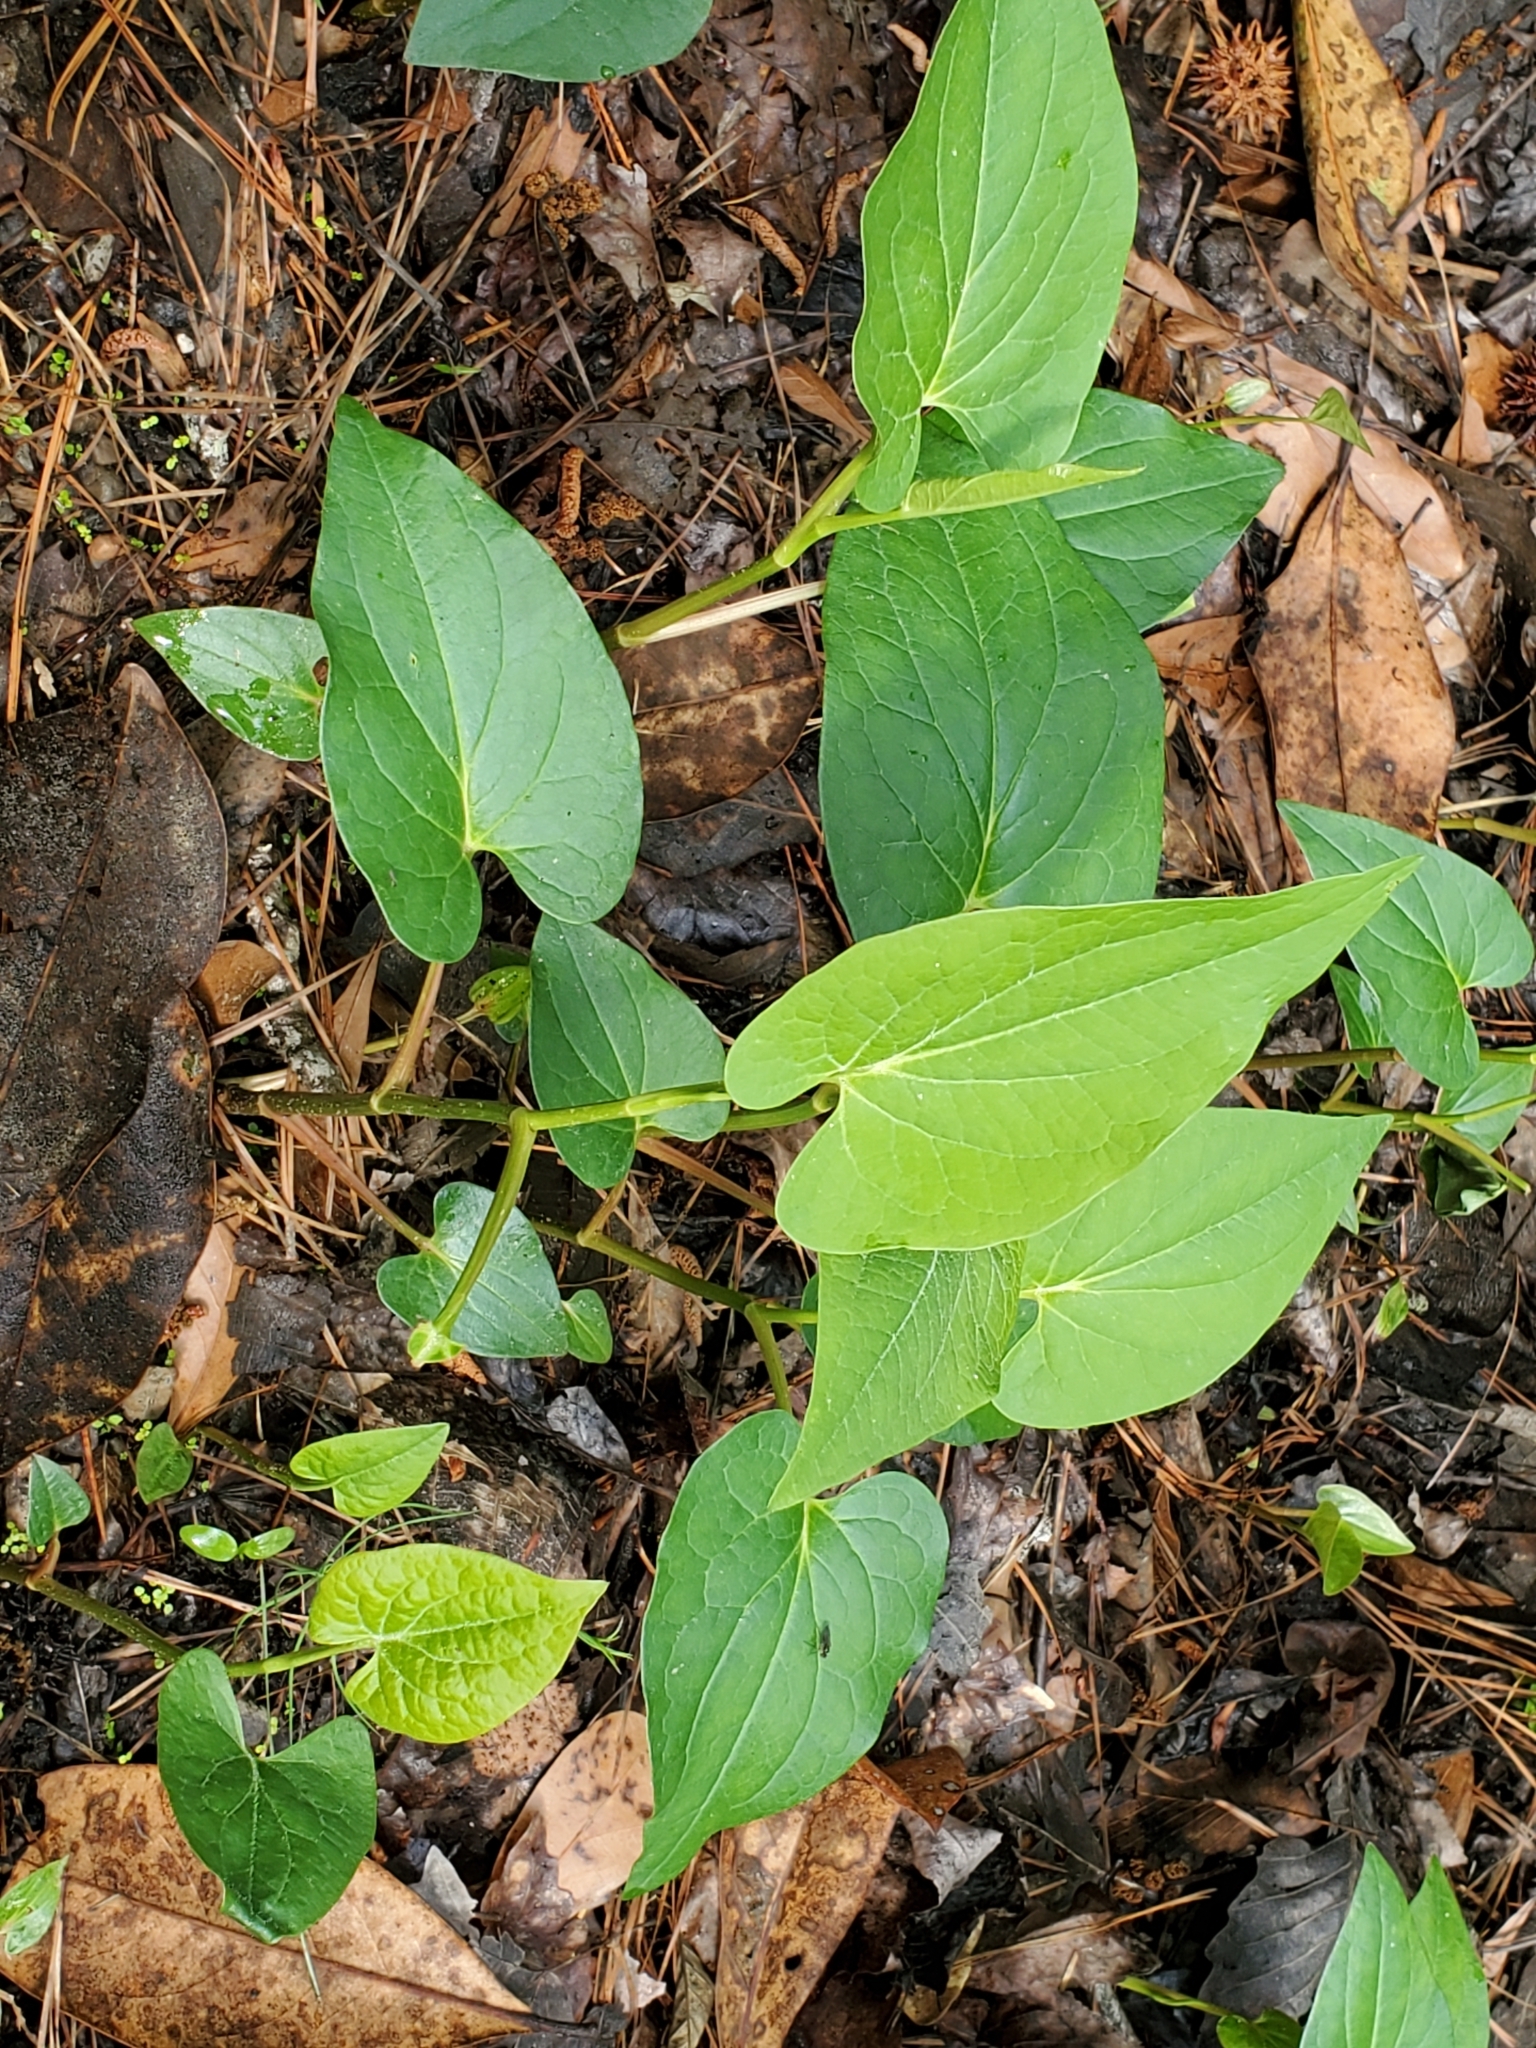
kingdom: Plantae
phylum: Tracheophyta
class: Magnoliopsida
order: Piperales
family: Saururaceae
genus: Saururus
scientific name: Saururus cernuus
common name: Lizard's-tail
